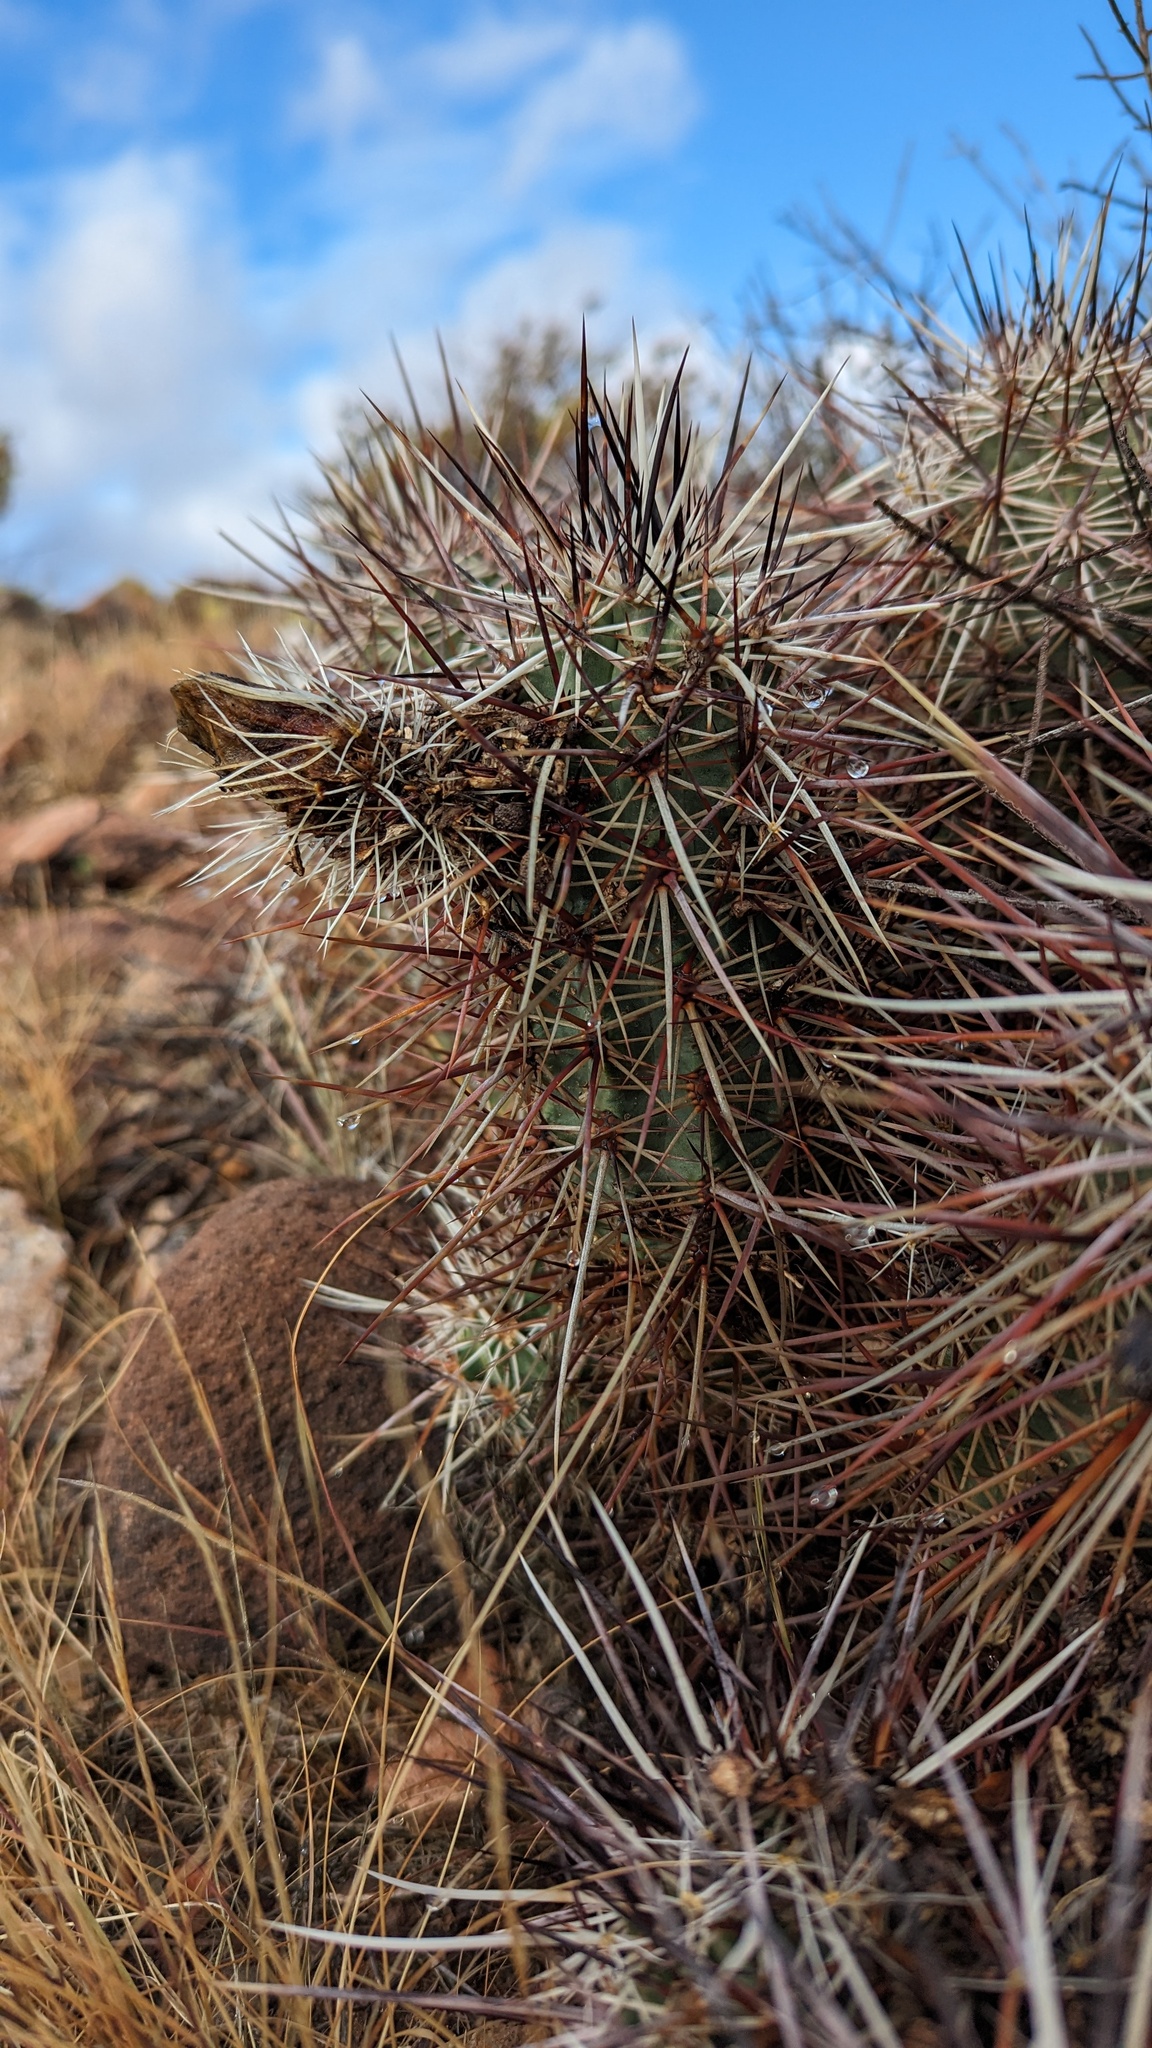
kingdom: Plantae
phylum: Tracheophyta
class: Magnoliopsida
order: Caryophyllales
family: Cactaceae
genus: Echinocereus
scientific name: Echinocereus engelmannii
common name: Engelmann's hedgehog cactus
